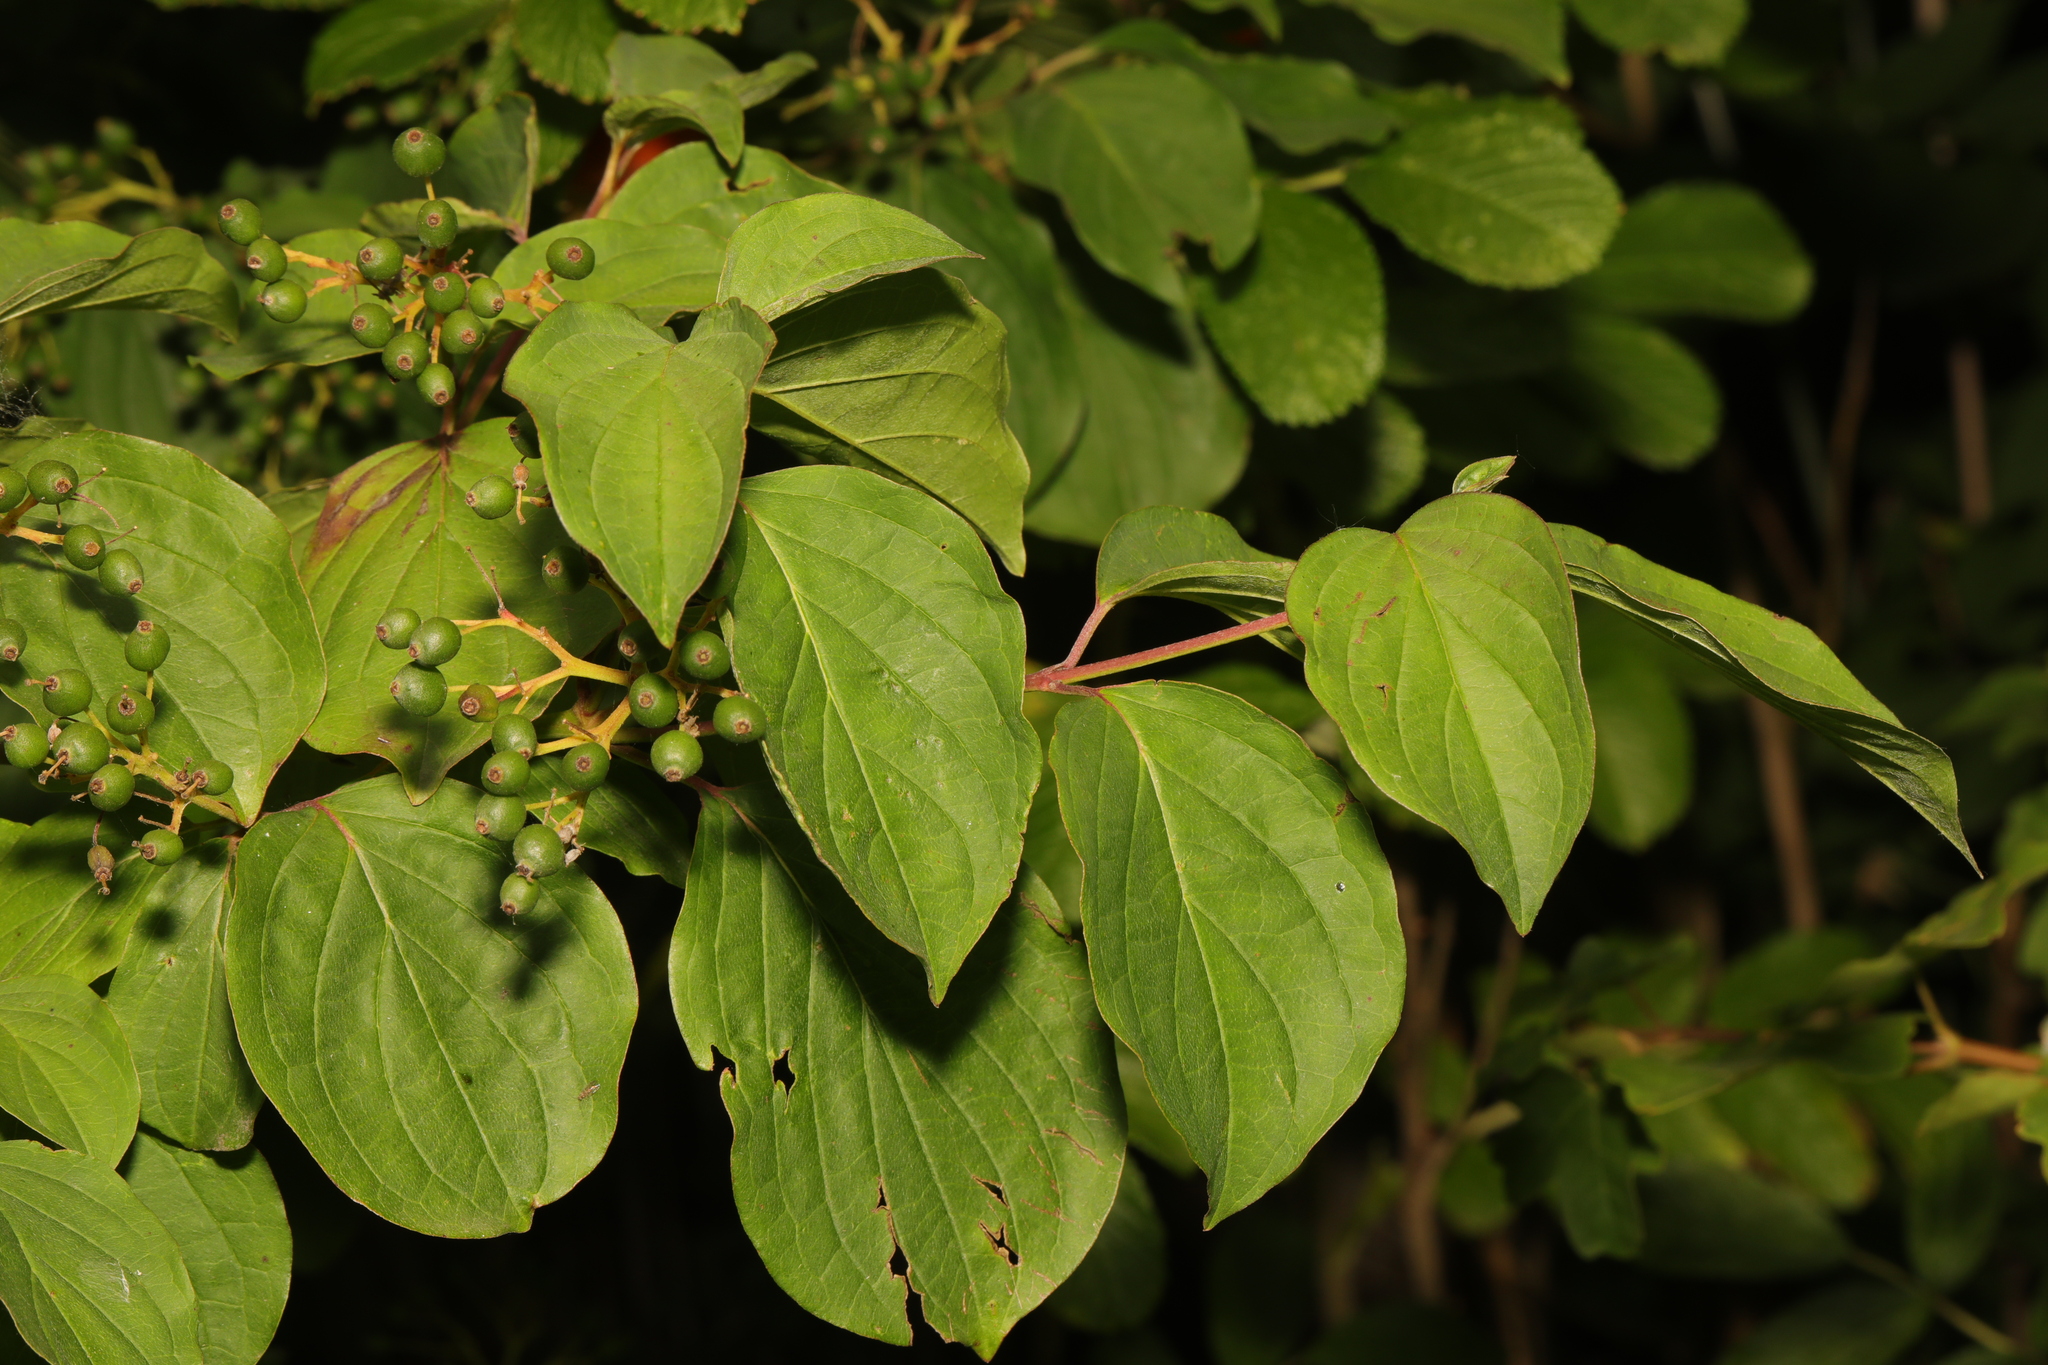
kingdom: Plantae
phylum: Tracheophyta
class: Magnoliopsida
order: Cornales
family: Cornaceae
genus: Cornus
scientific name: Cornus sanguinea
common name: Dogwood
